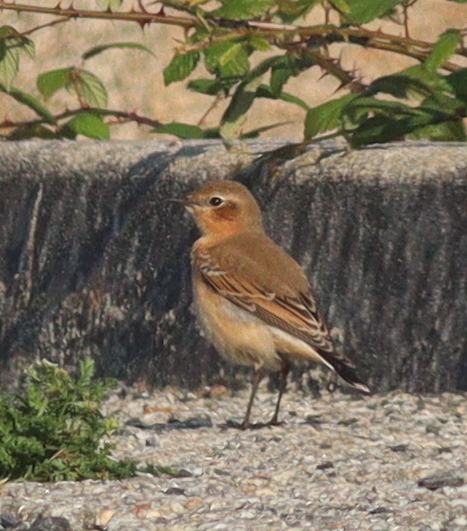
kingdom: Animalia
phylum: Chordata
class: Aves
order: Passeriformes
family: Muscicapidae
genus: Oenanthe
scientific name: Oenanthe oenanthe
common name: Northern wheatear
